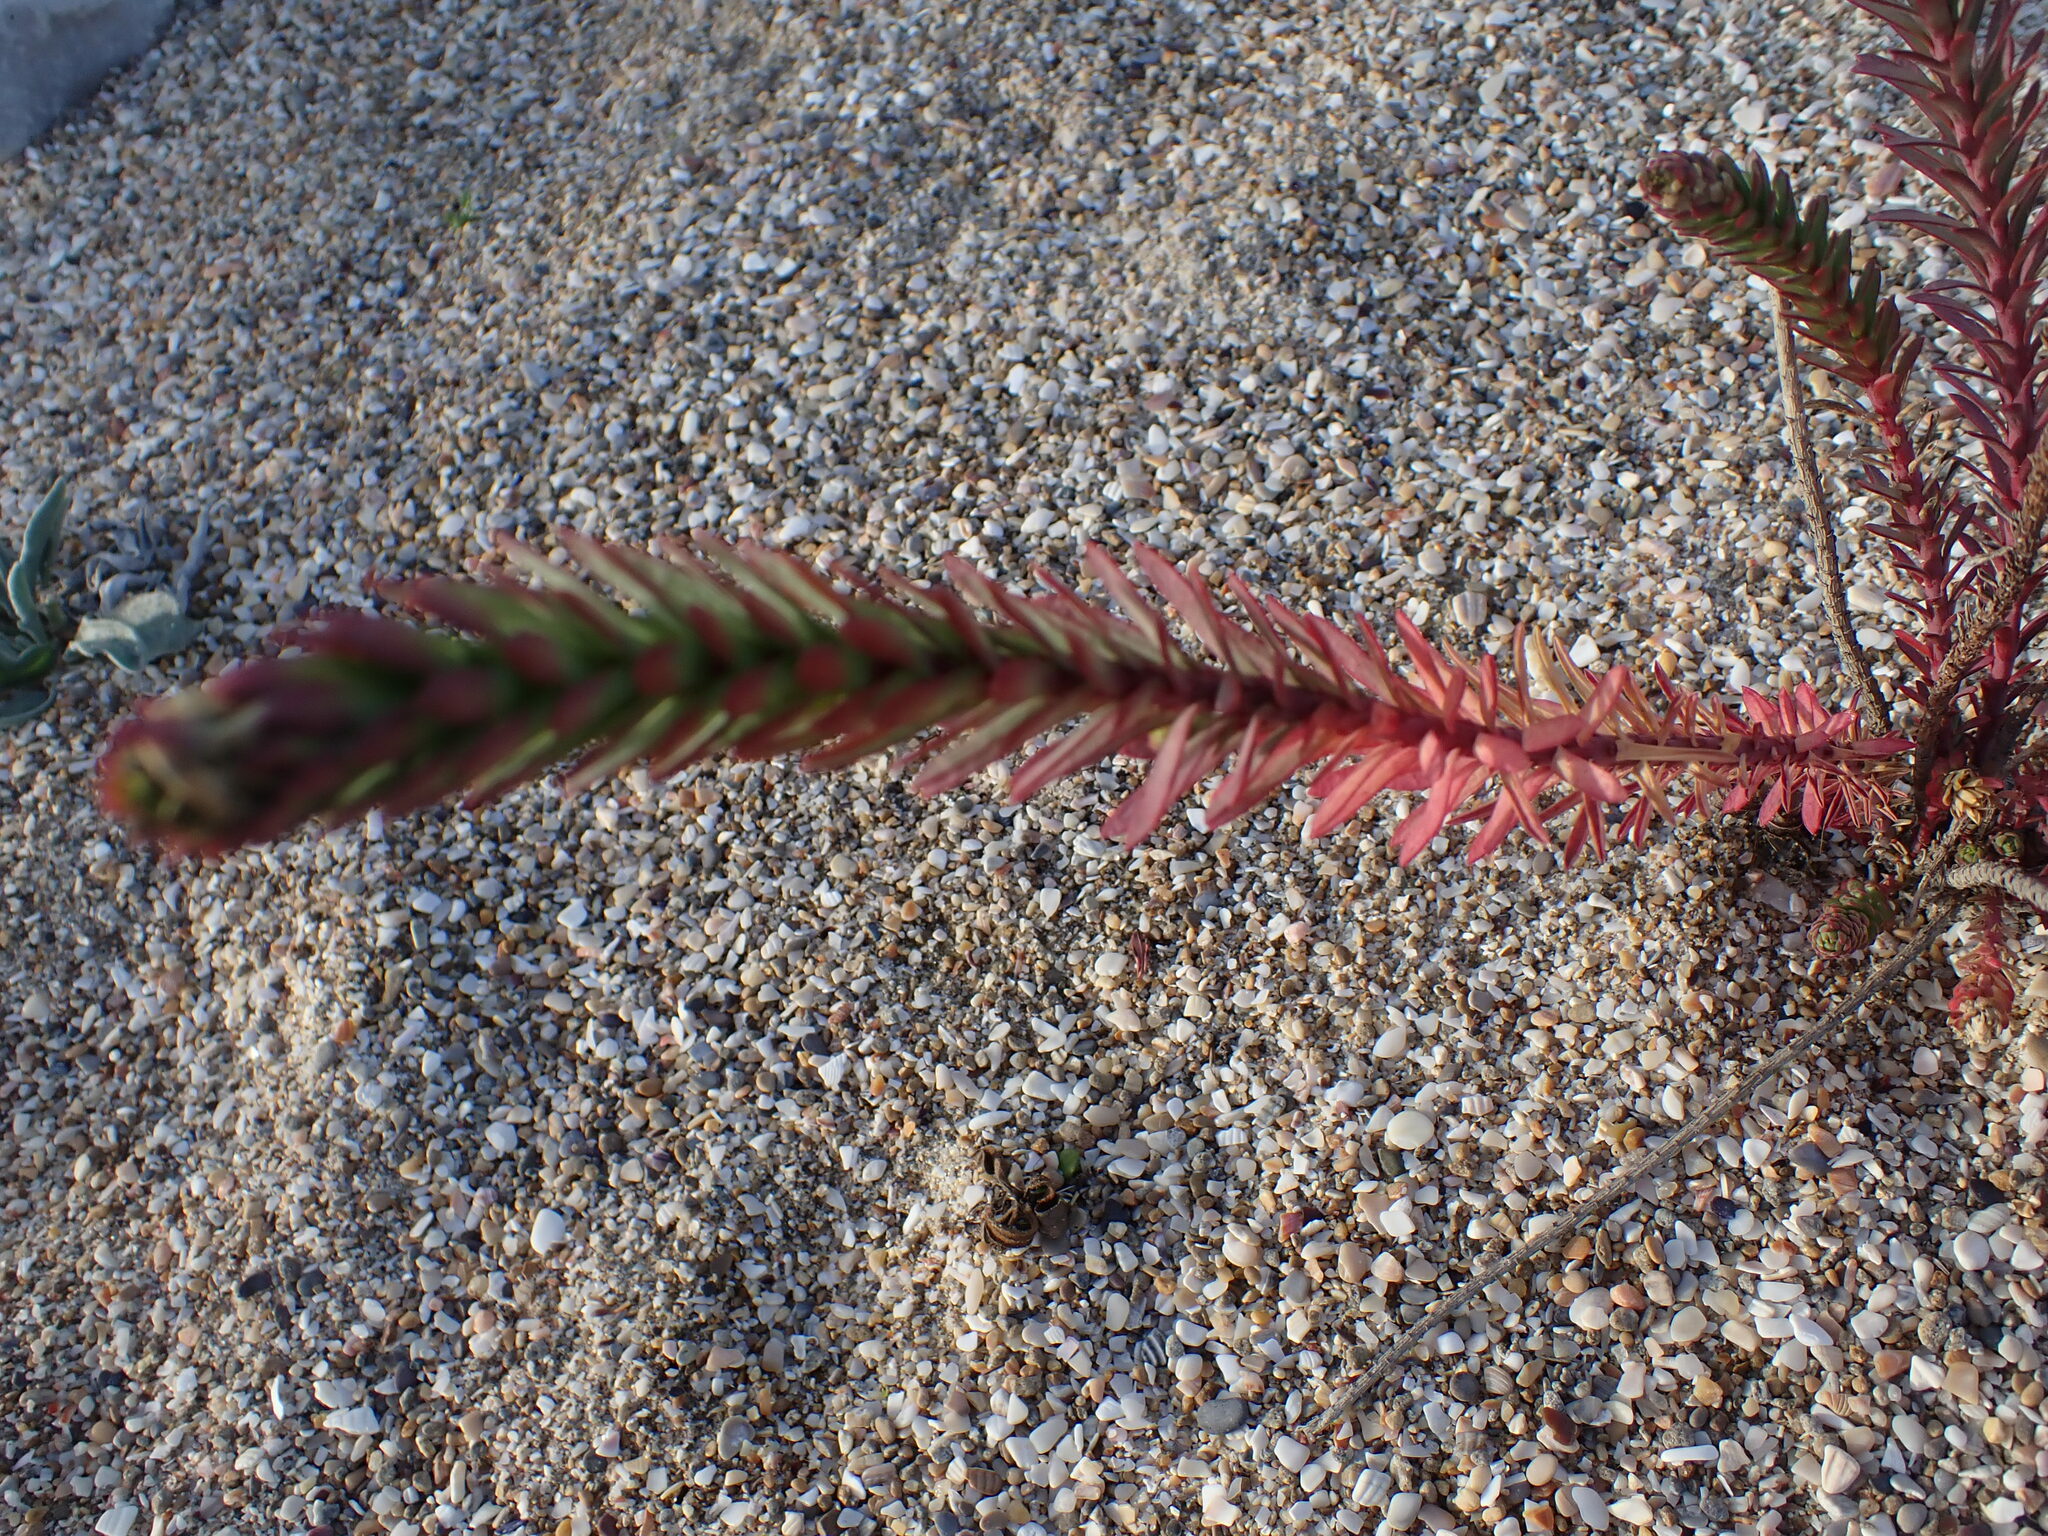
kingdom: Plantae
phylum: Tracheophyta
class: Magnoliopsida
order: Malpighiales
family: Euphorbiaceae
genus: Euphorbia
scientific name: Euphorbia paralias
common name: Sea spurge
